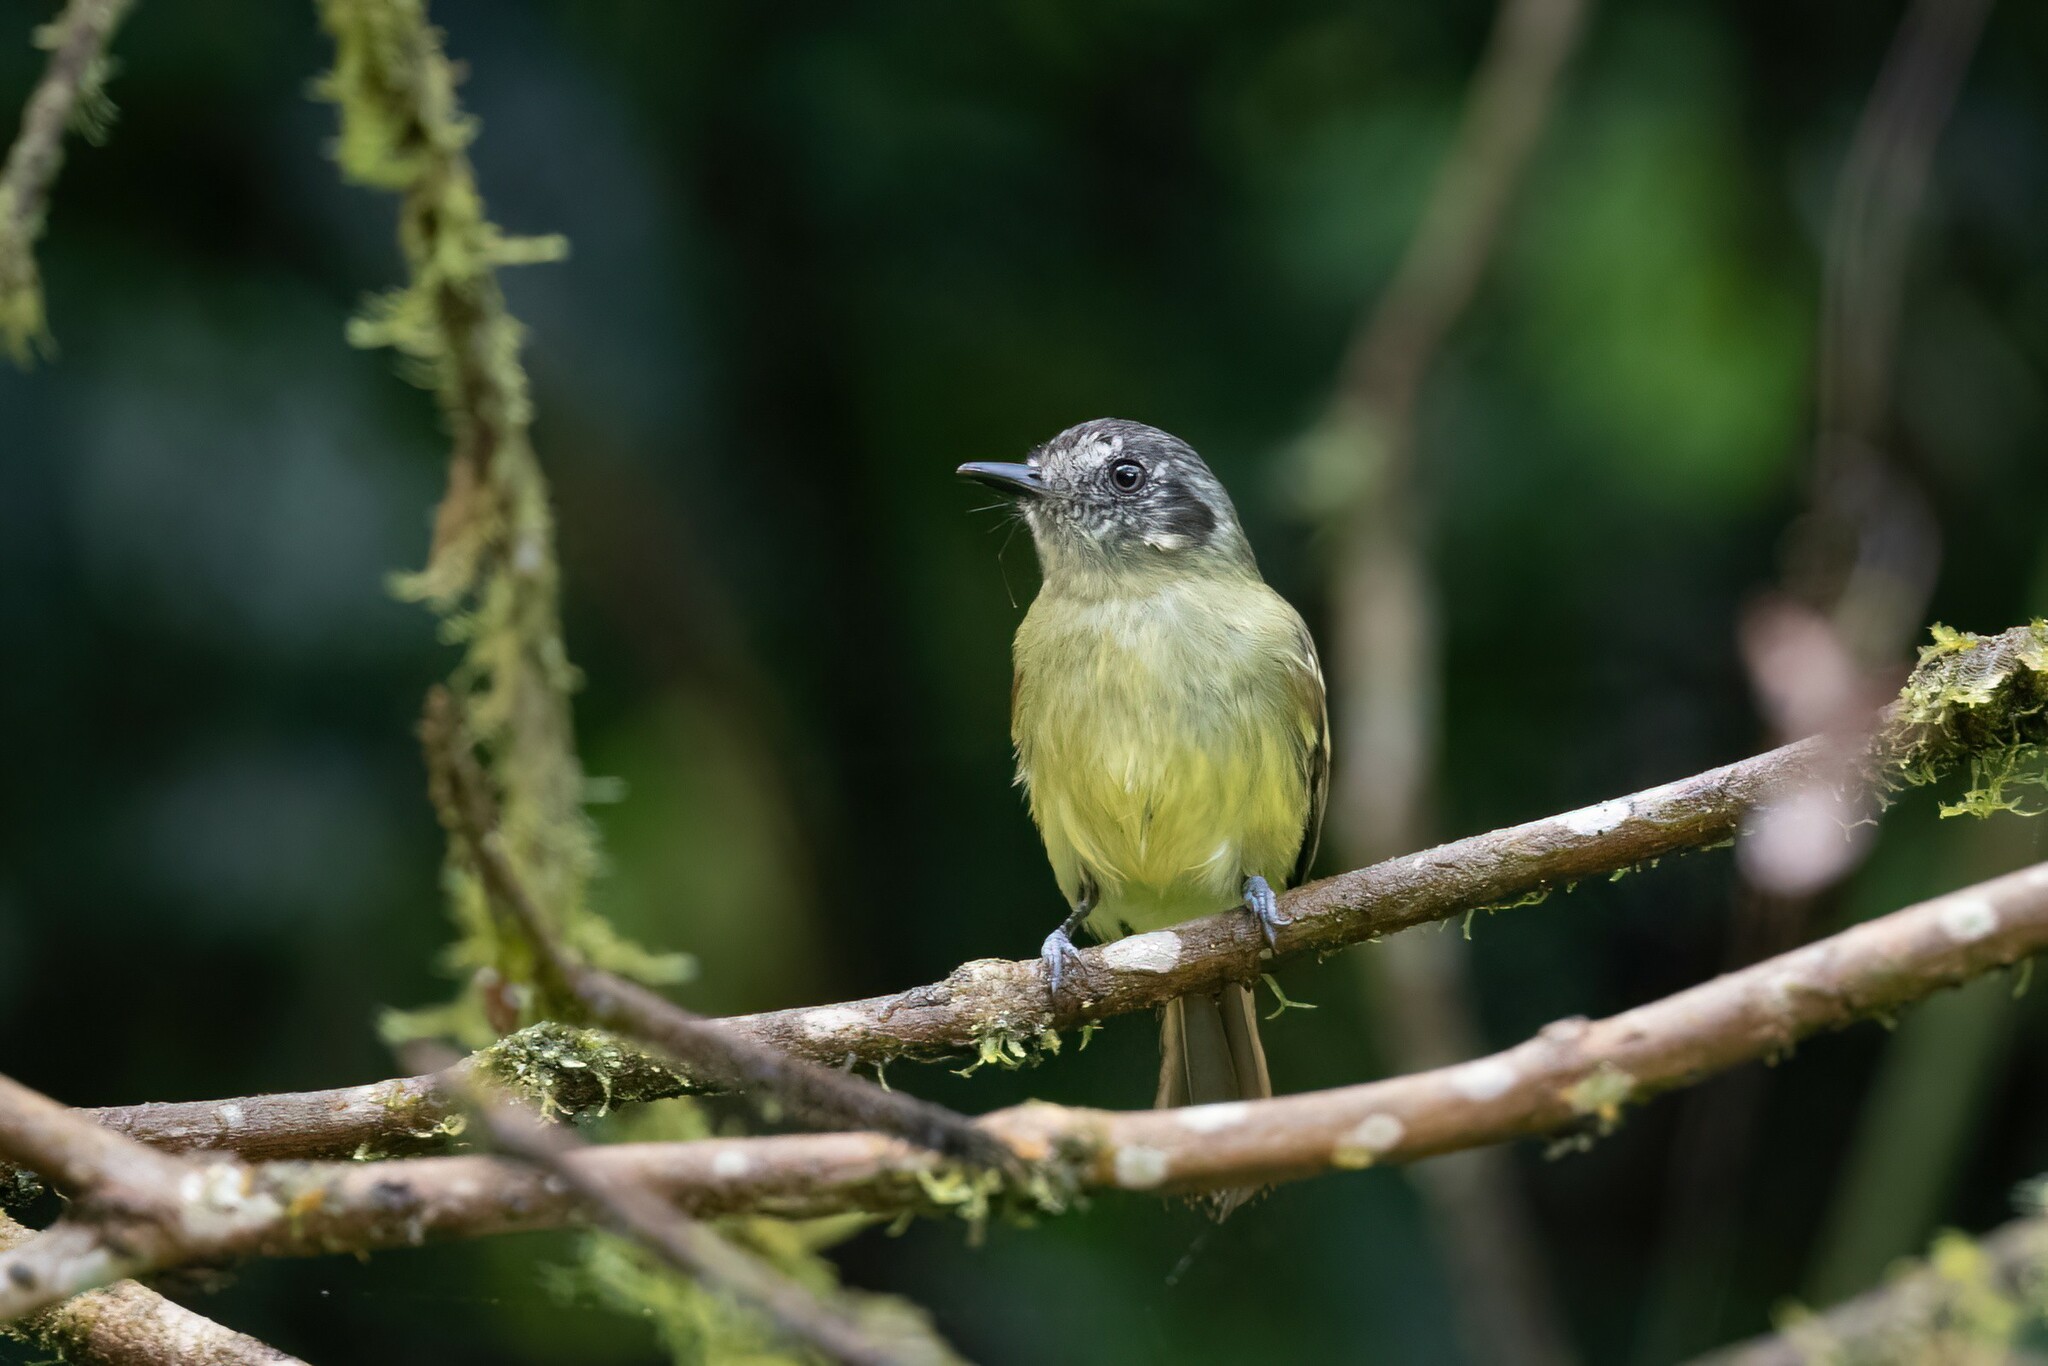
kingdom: Animalia
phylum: Chordata
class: Aves
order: Passeriformes
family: Tyrannidae
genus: Leptopogon
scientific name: Leptopogon superciliaris
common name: Slaty-capped flycatcher
